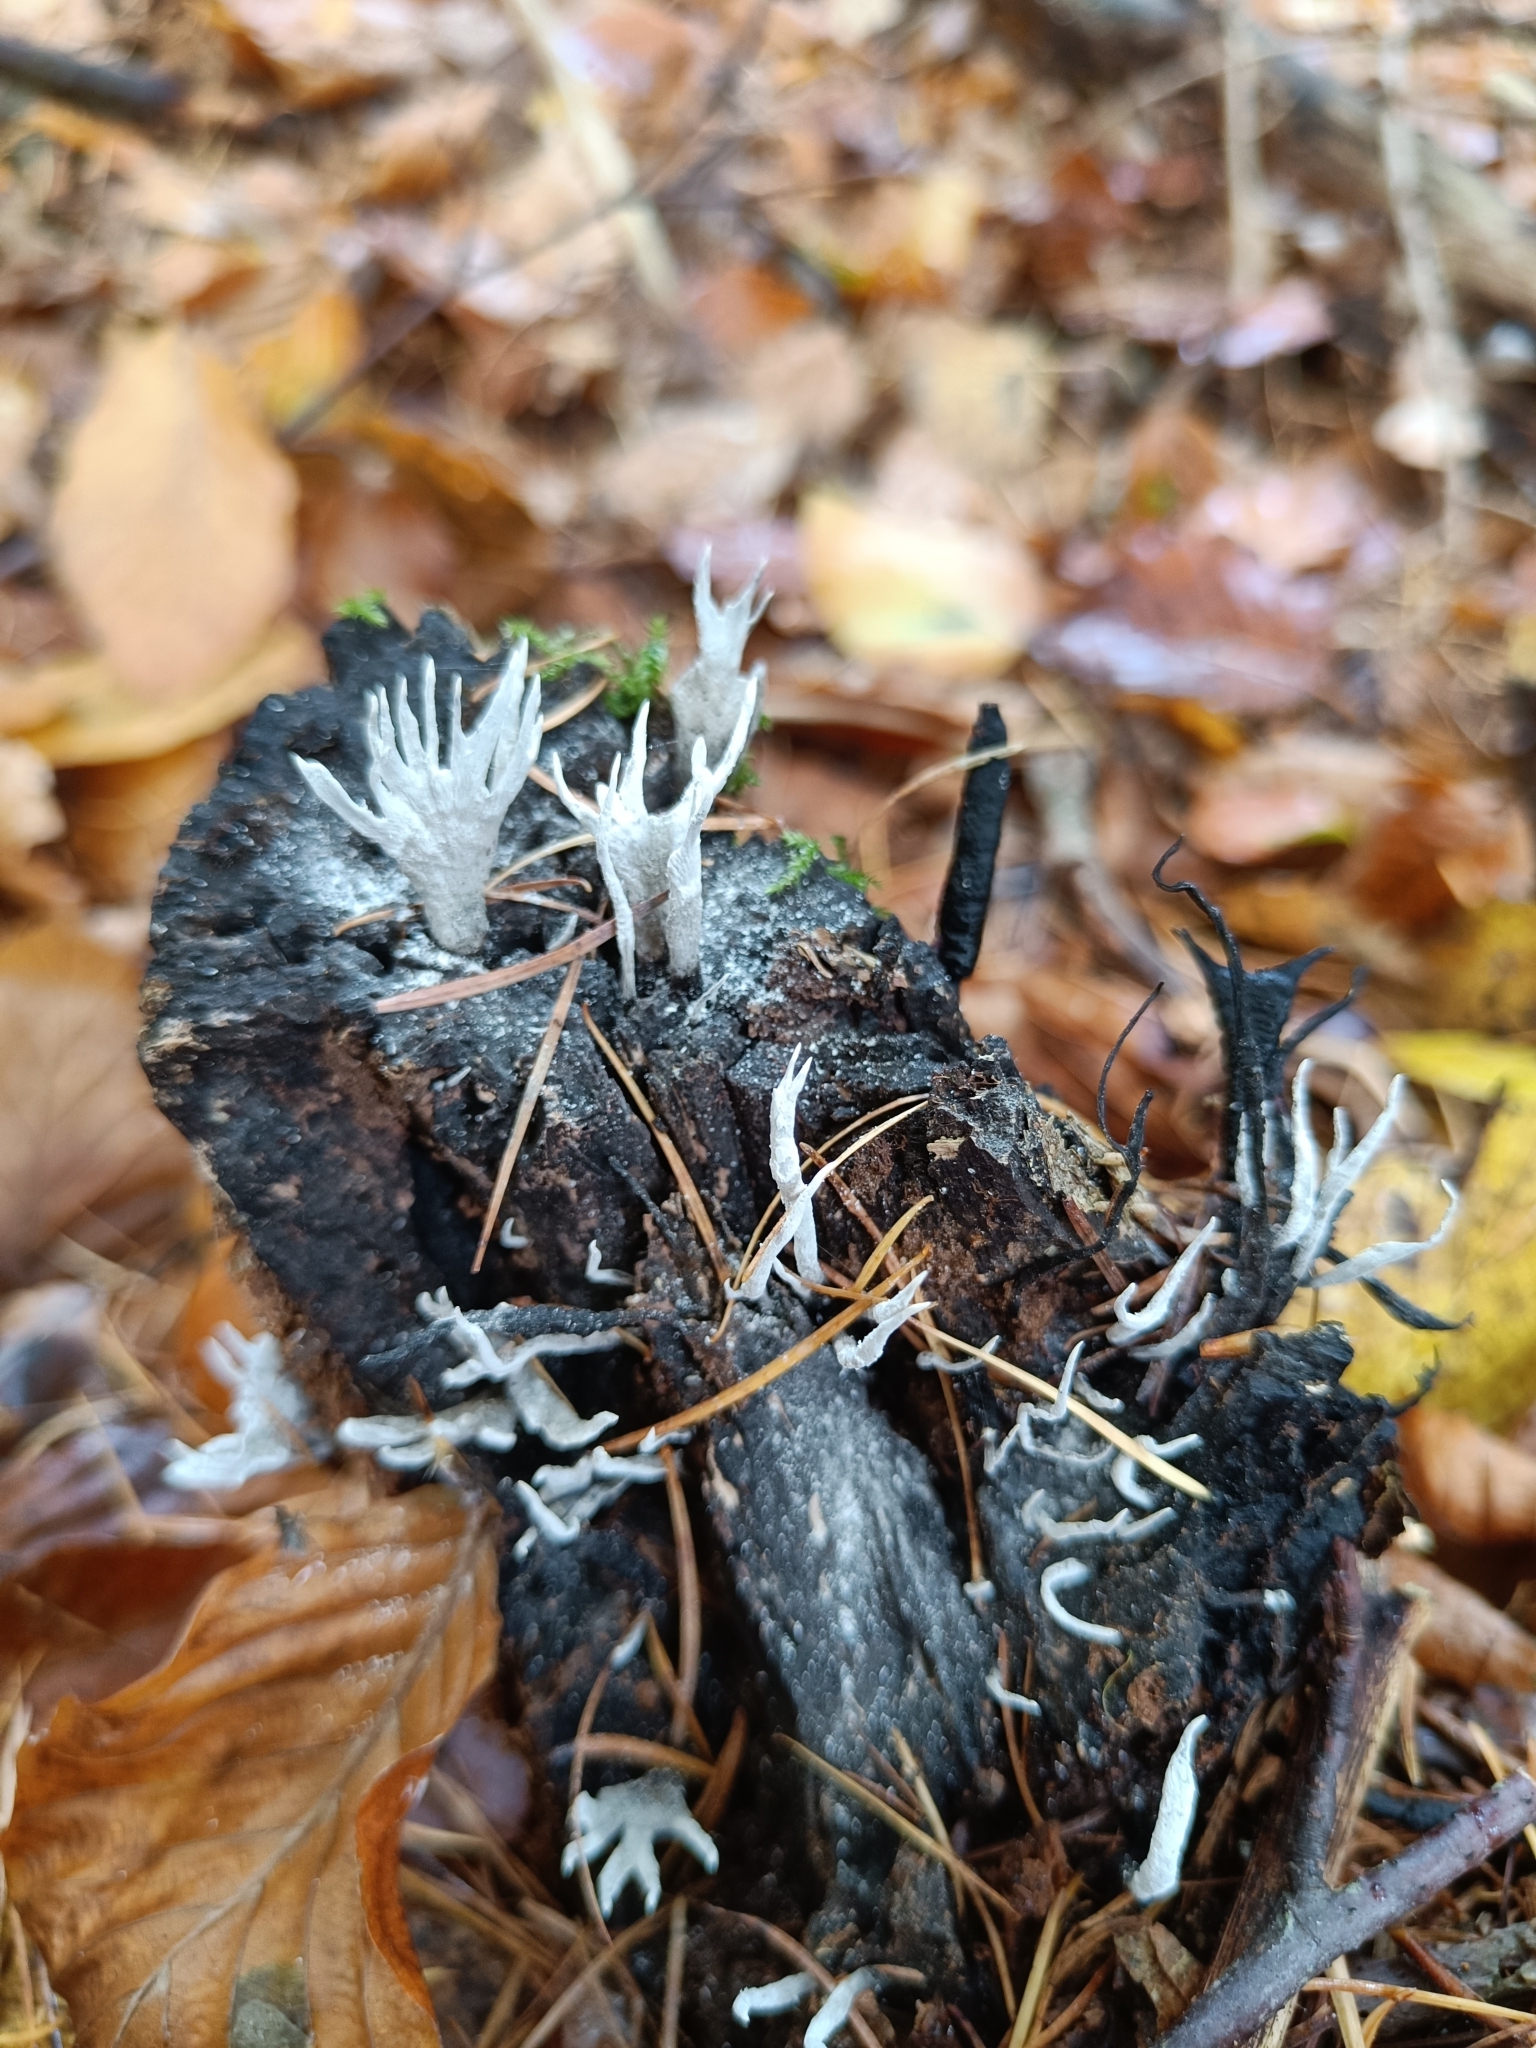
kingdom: Fungi
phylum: Ascomycota
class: Sordariomycetes
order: Xylariales
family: Xylariaceae
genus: Xylaria
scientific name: Xylaria hypoxylon
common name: Candle-snuff fungus
